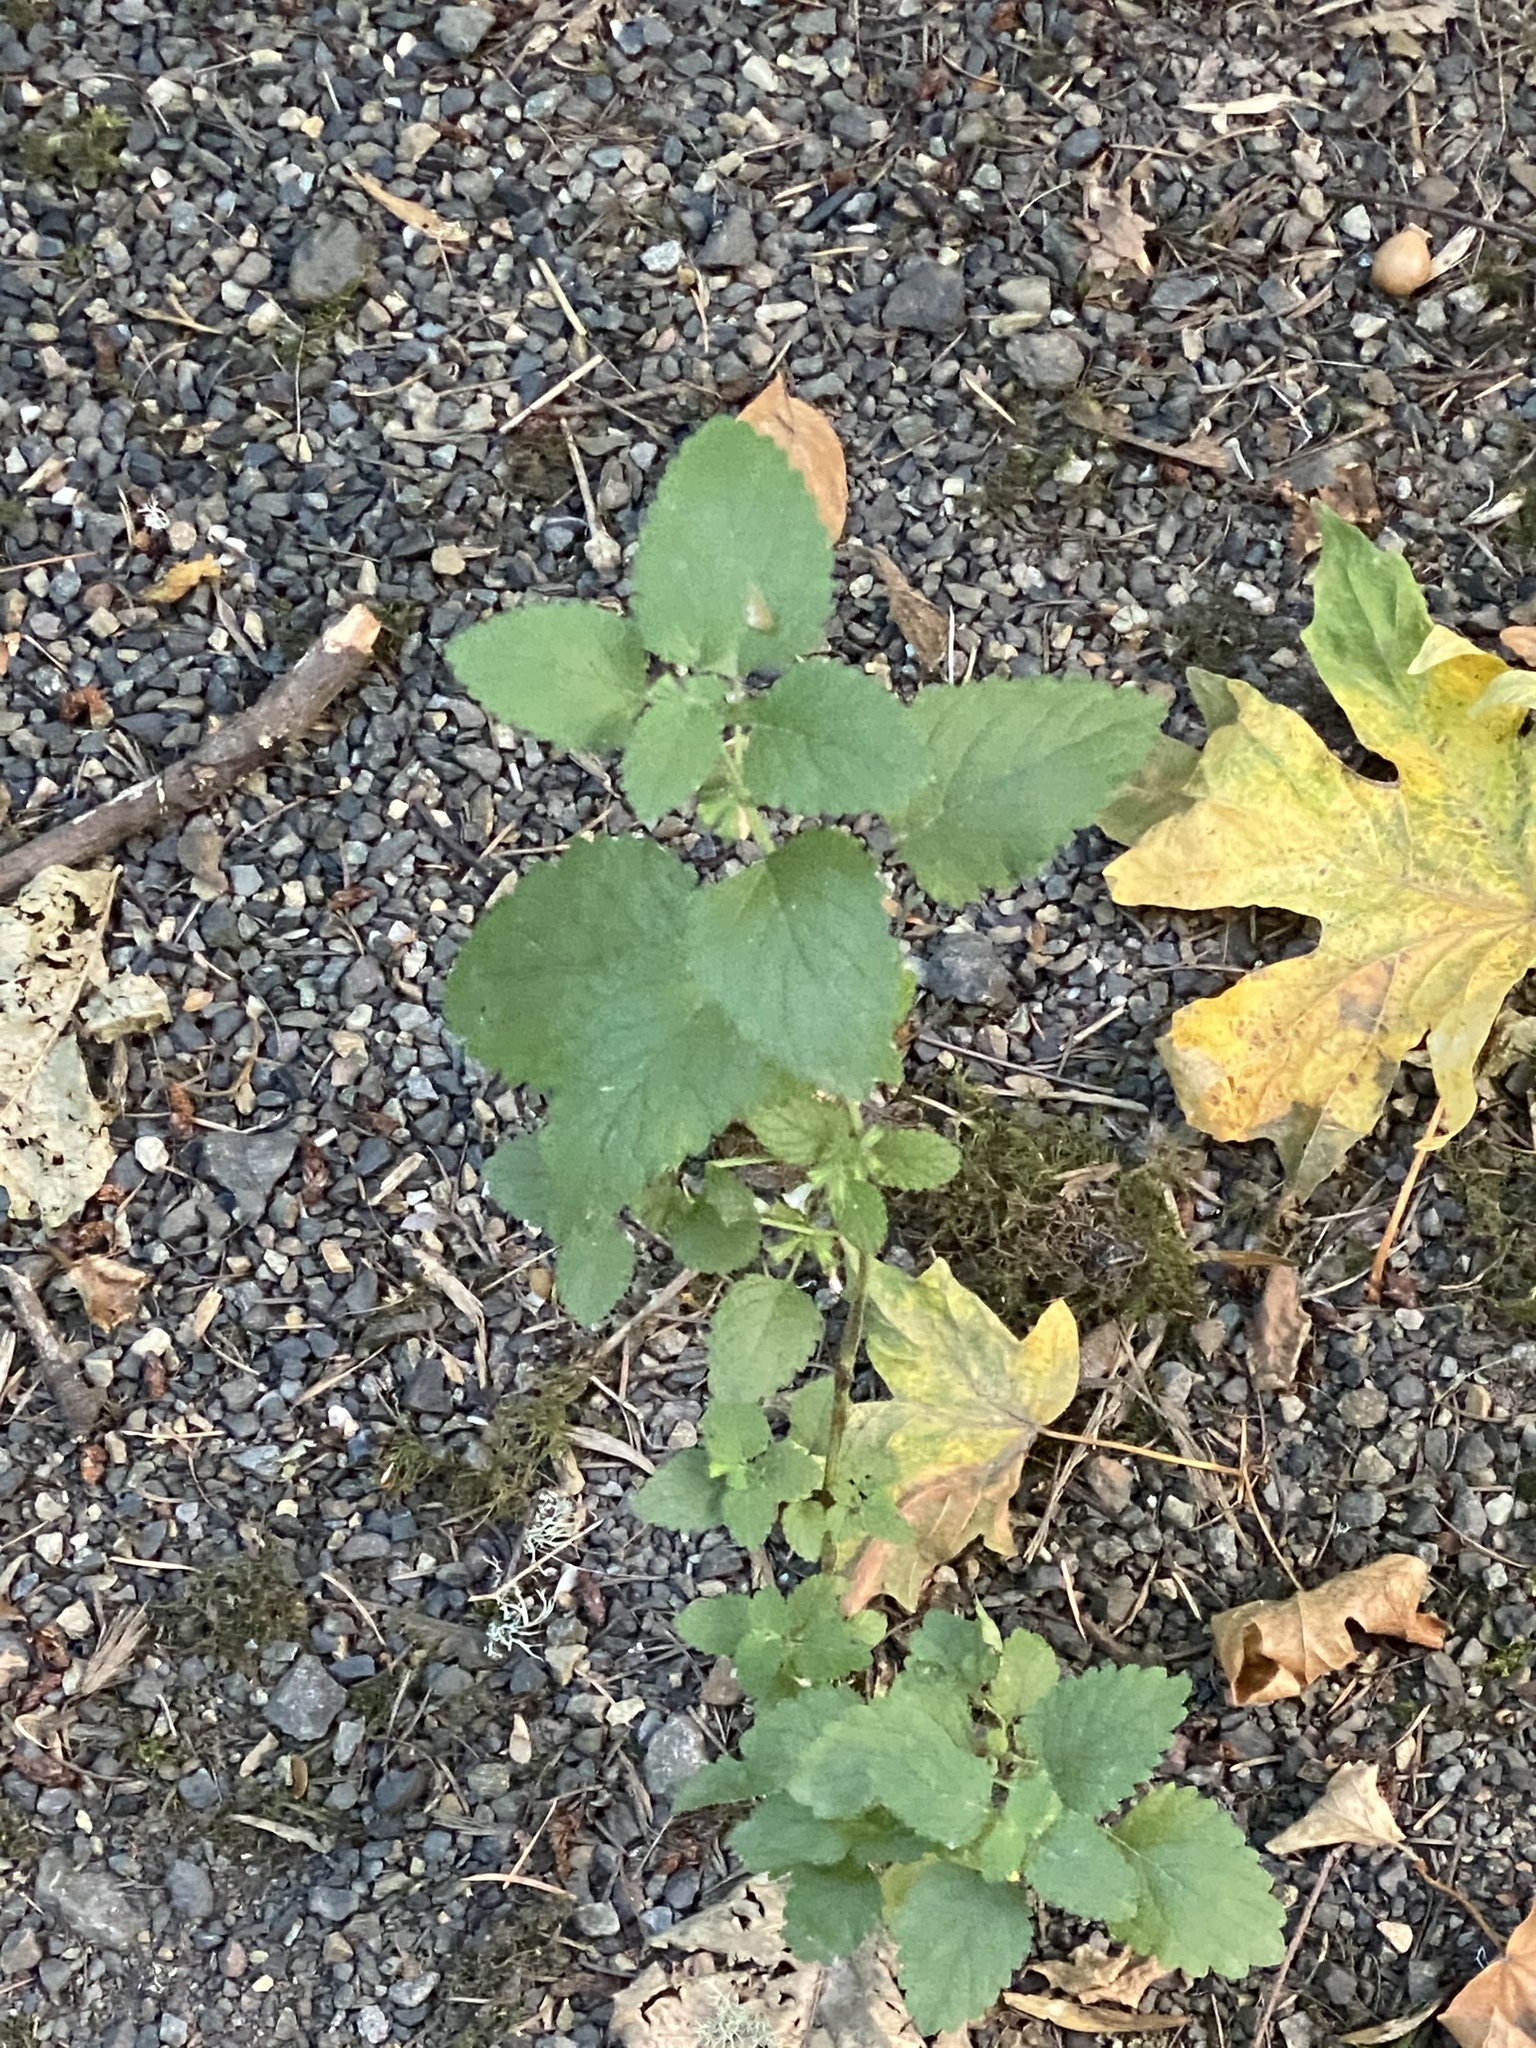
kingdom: Plantae
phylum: Tracheophyta
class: Magnoliopsida
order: Lamiales
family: Lamiaceae
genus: Melissa
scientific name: Melissa officinalis
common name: Balm
